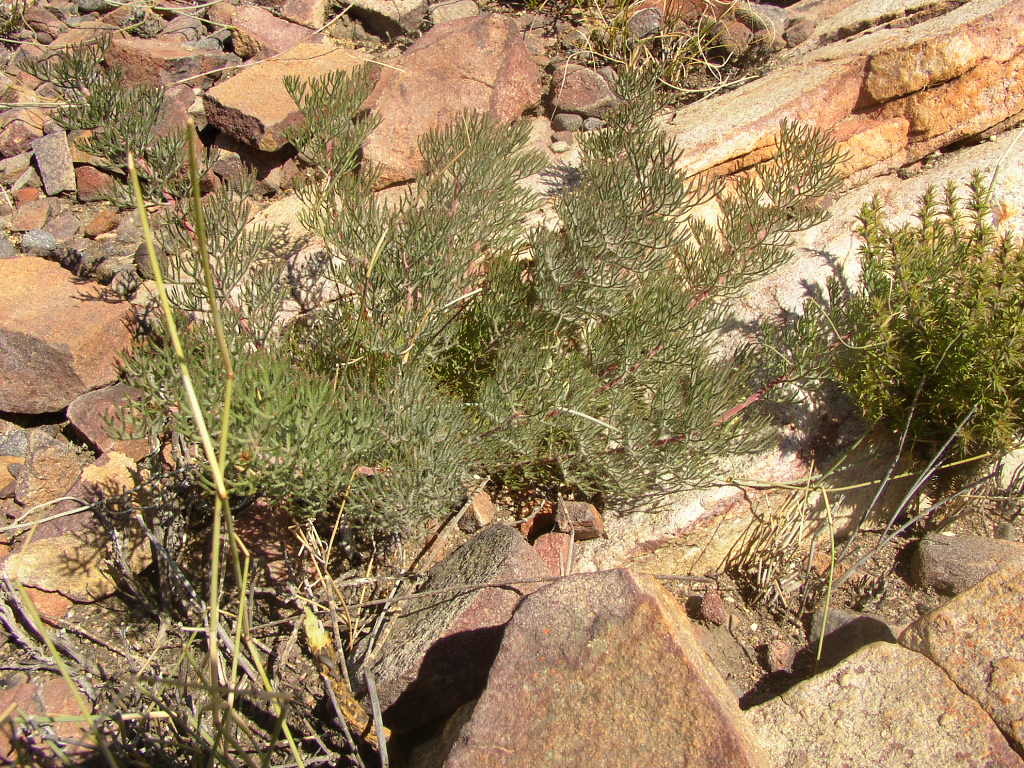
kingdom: Plantae
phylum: Tracheophyta
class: Magnoliopsida
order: Proteales
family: Proteaceae
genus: Serruria
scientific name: Serruria gremialis
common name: Riviersonderend spiderhead
